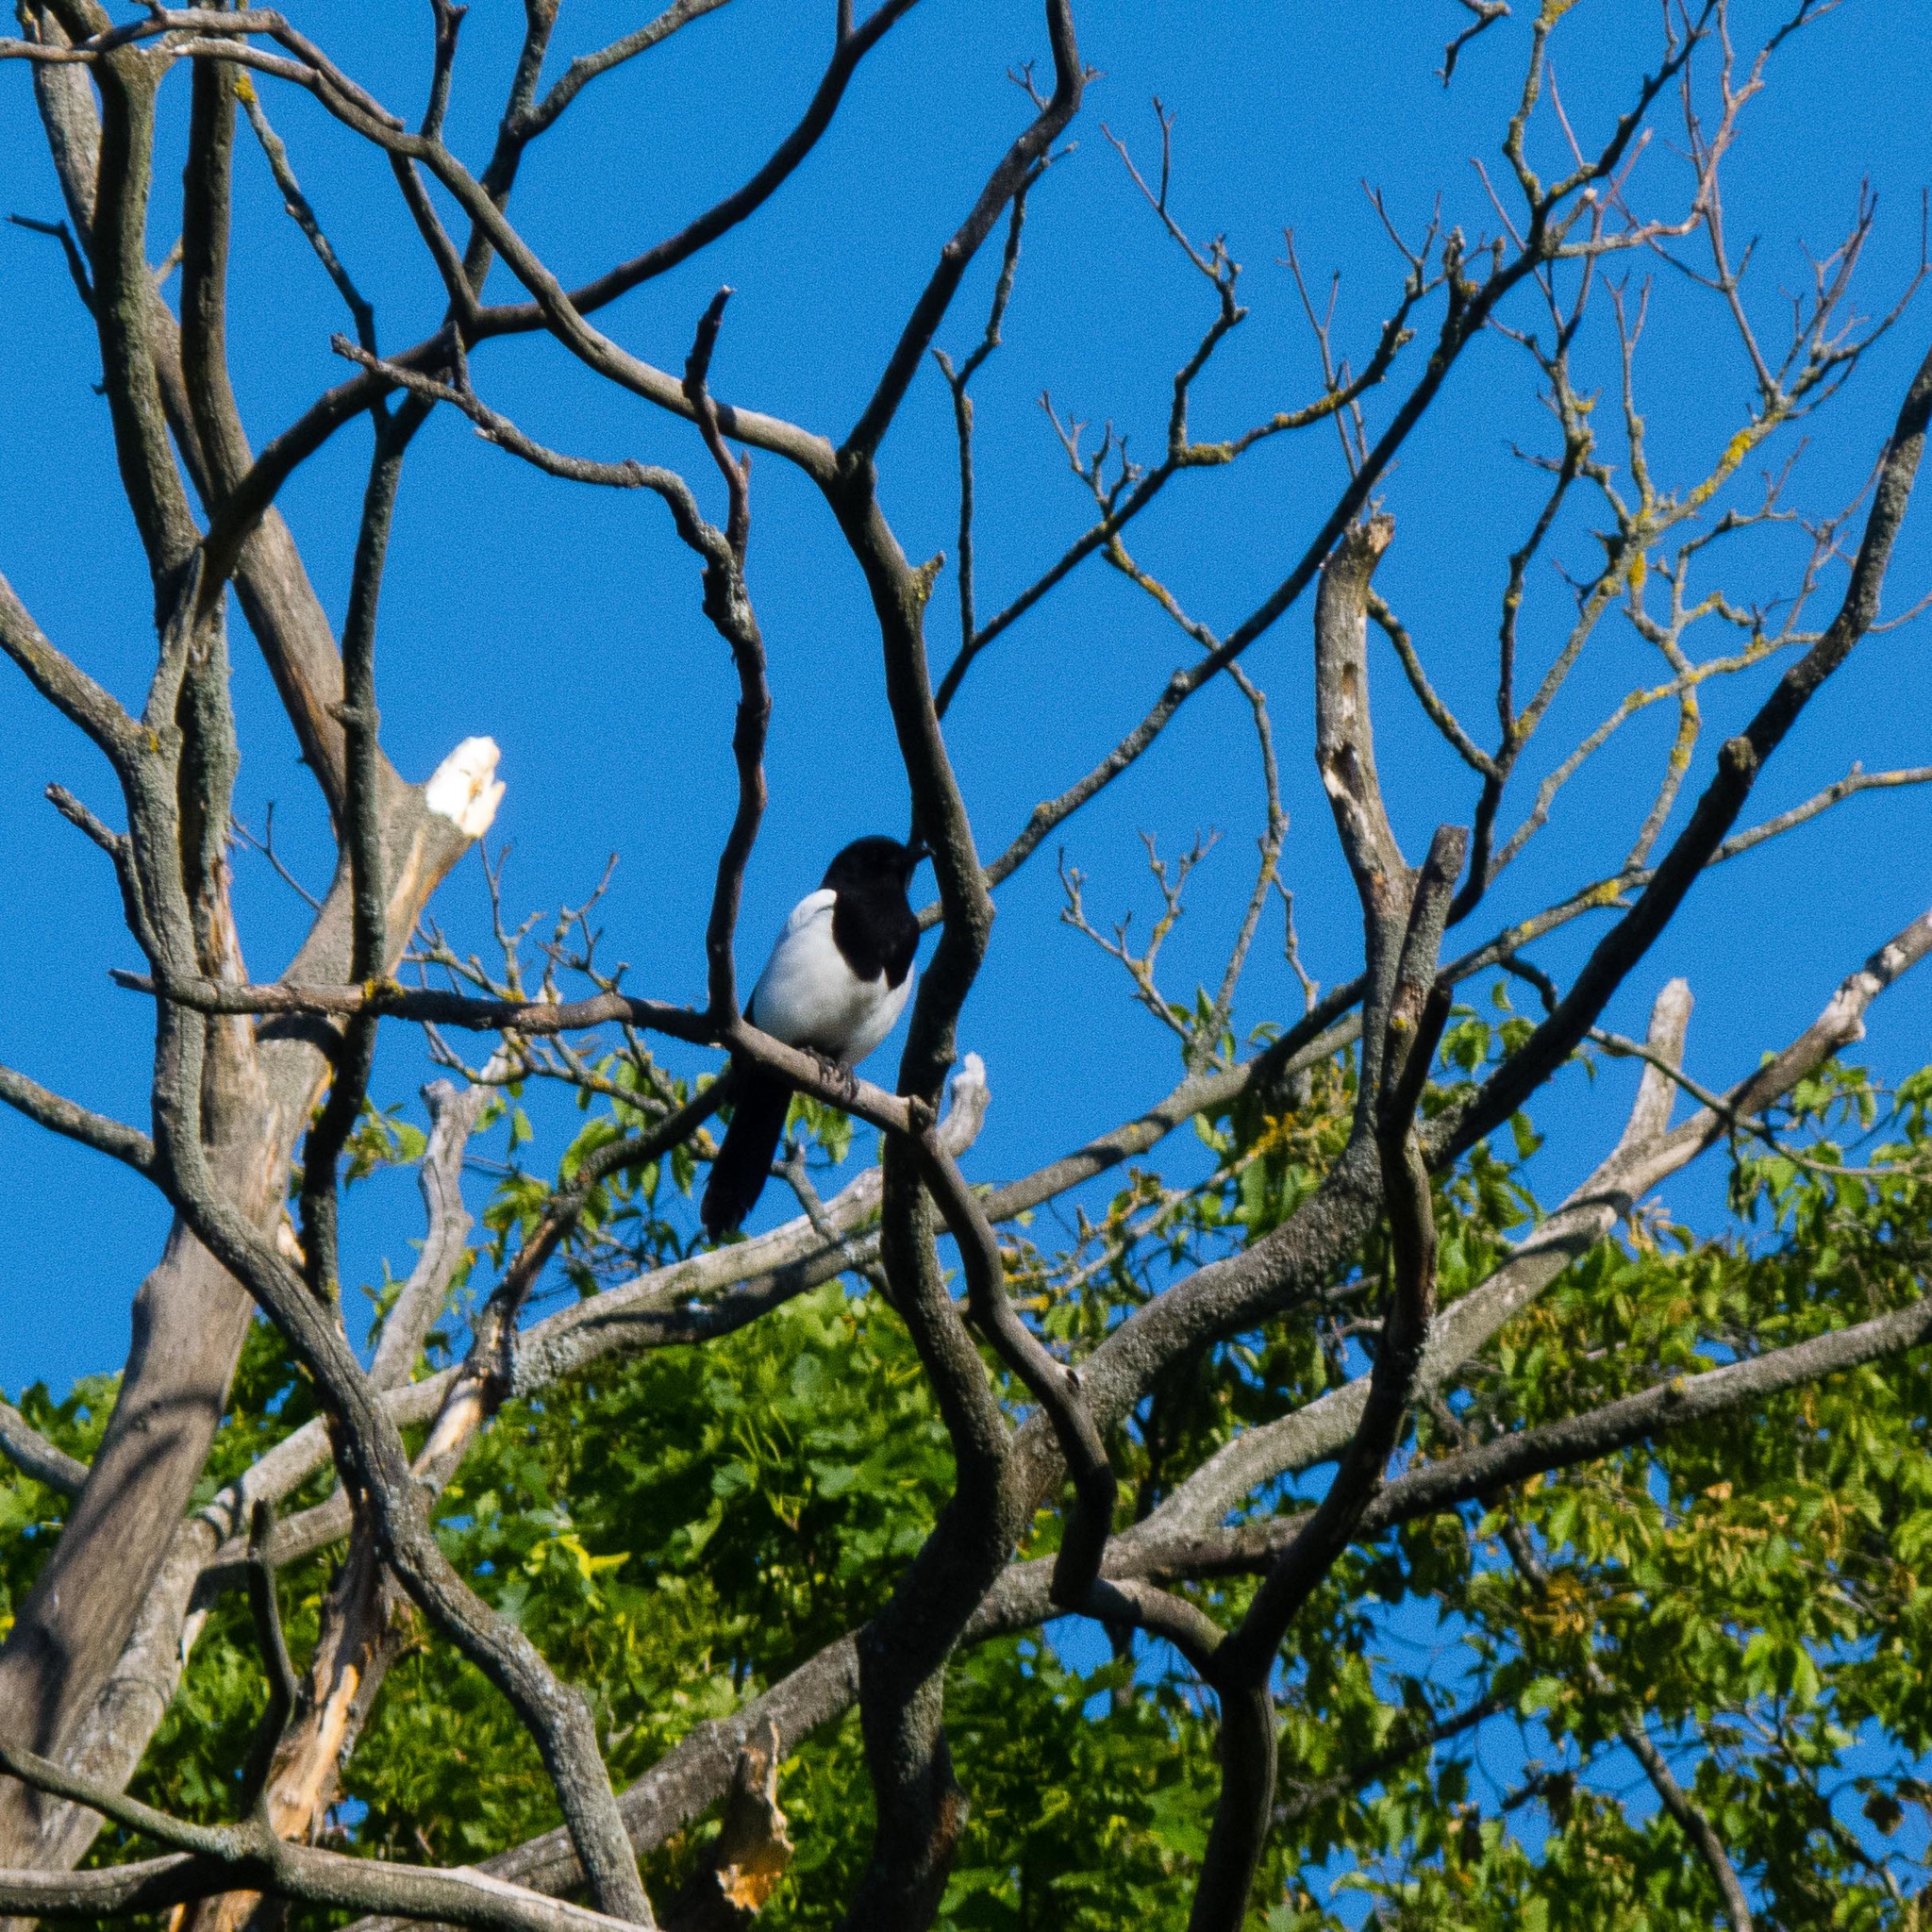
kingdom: Animalia
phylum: Chordata
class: Aves
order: Passeriformes
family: Corvidae
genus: Pica
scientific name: Pica pica
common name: Eurasian magpie
